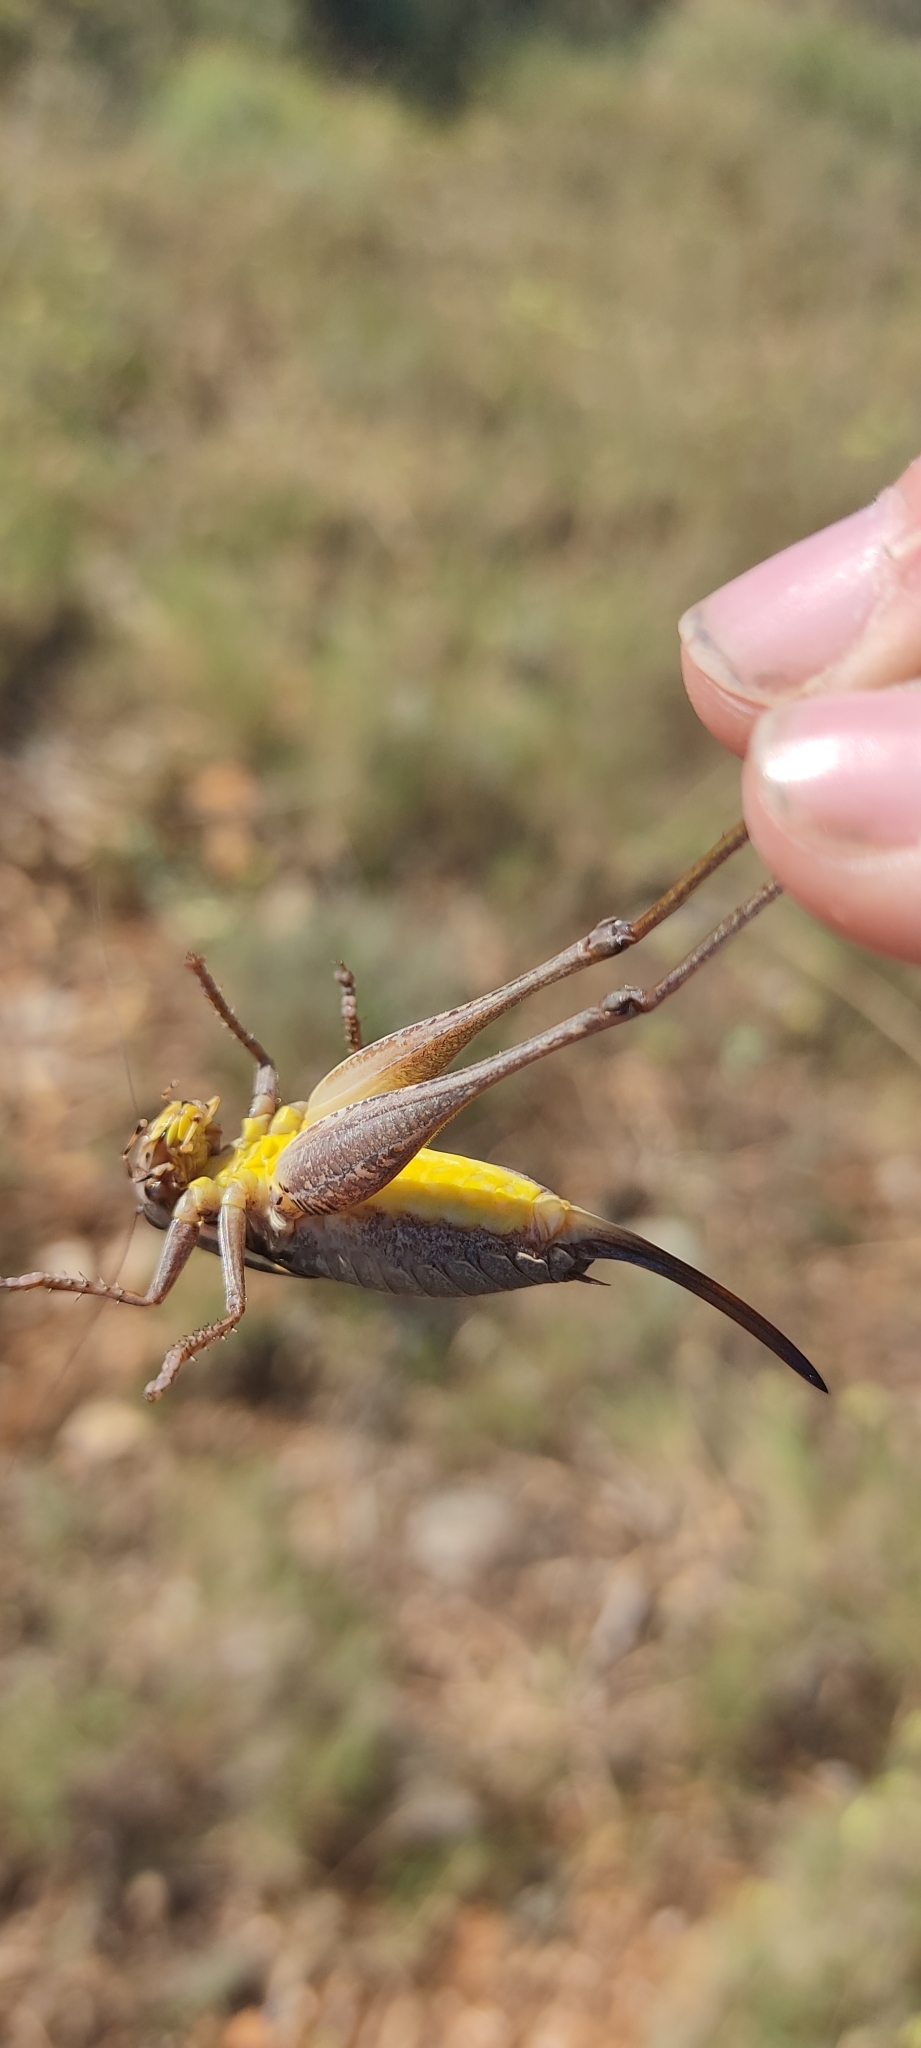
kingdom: Animalia
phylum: Arthropoda
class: Insecta
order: Orthoptera
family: Tettigoniidae
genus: Pholidoptera
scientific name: Pholidoptera femorata
